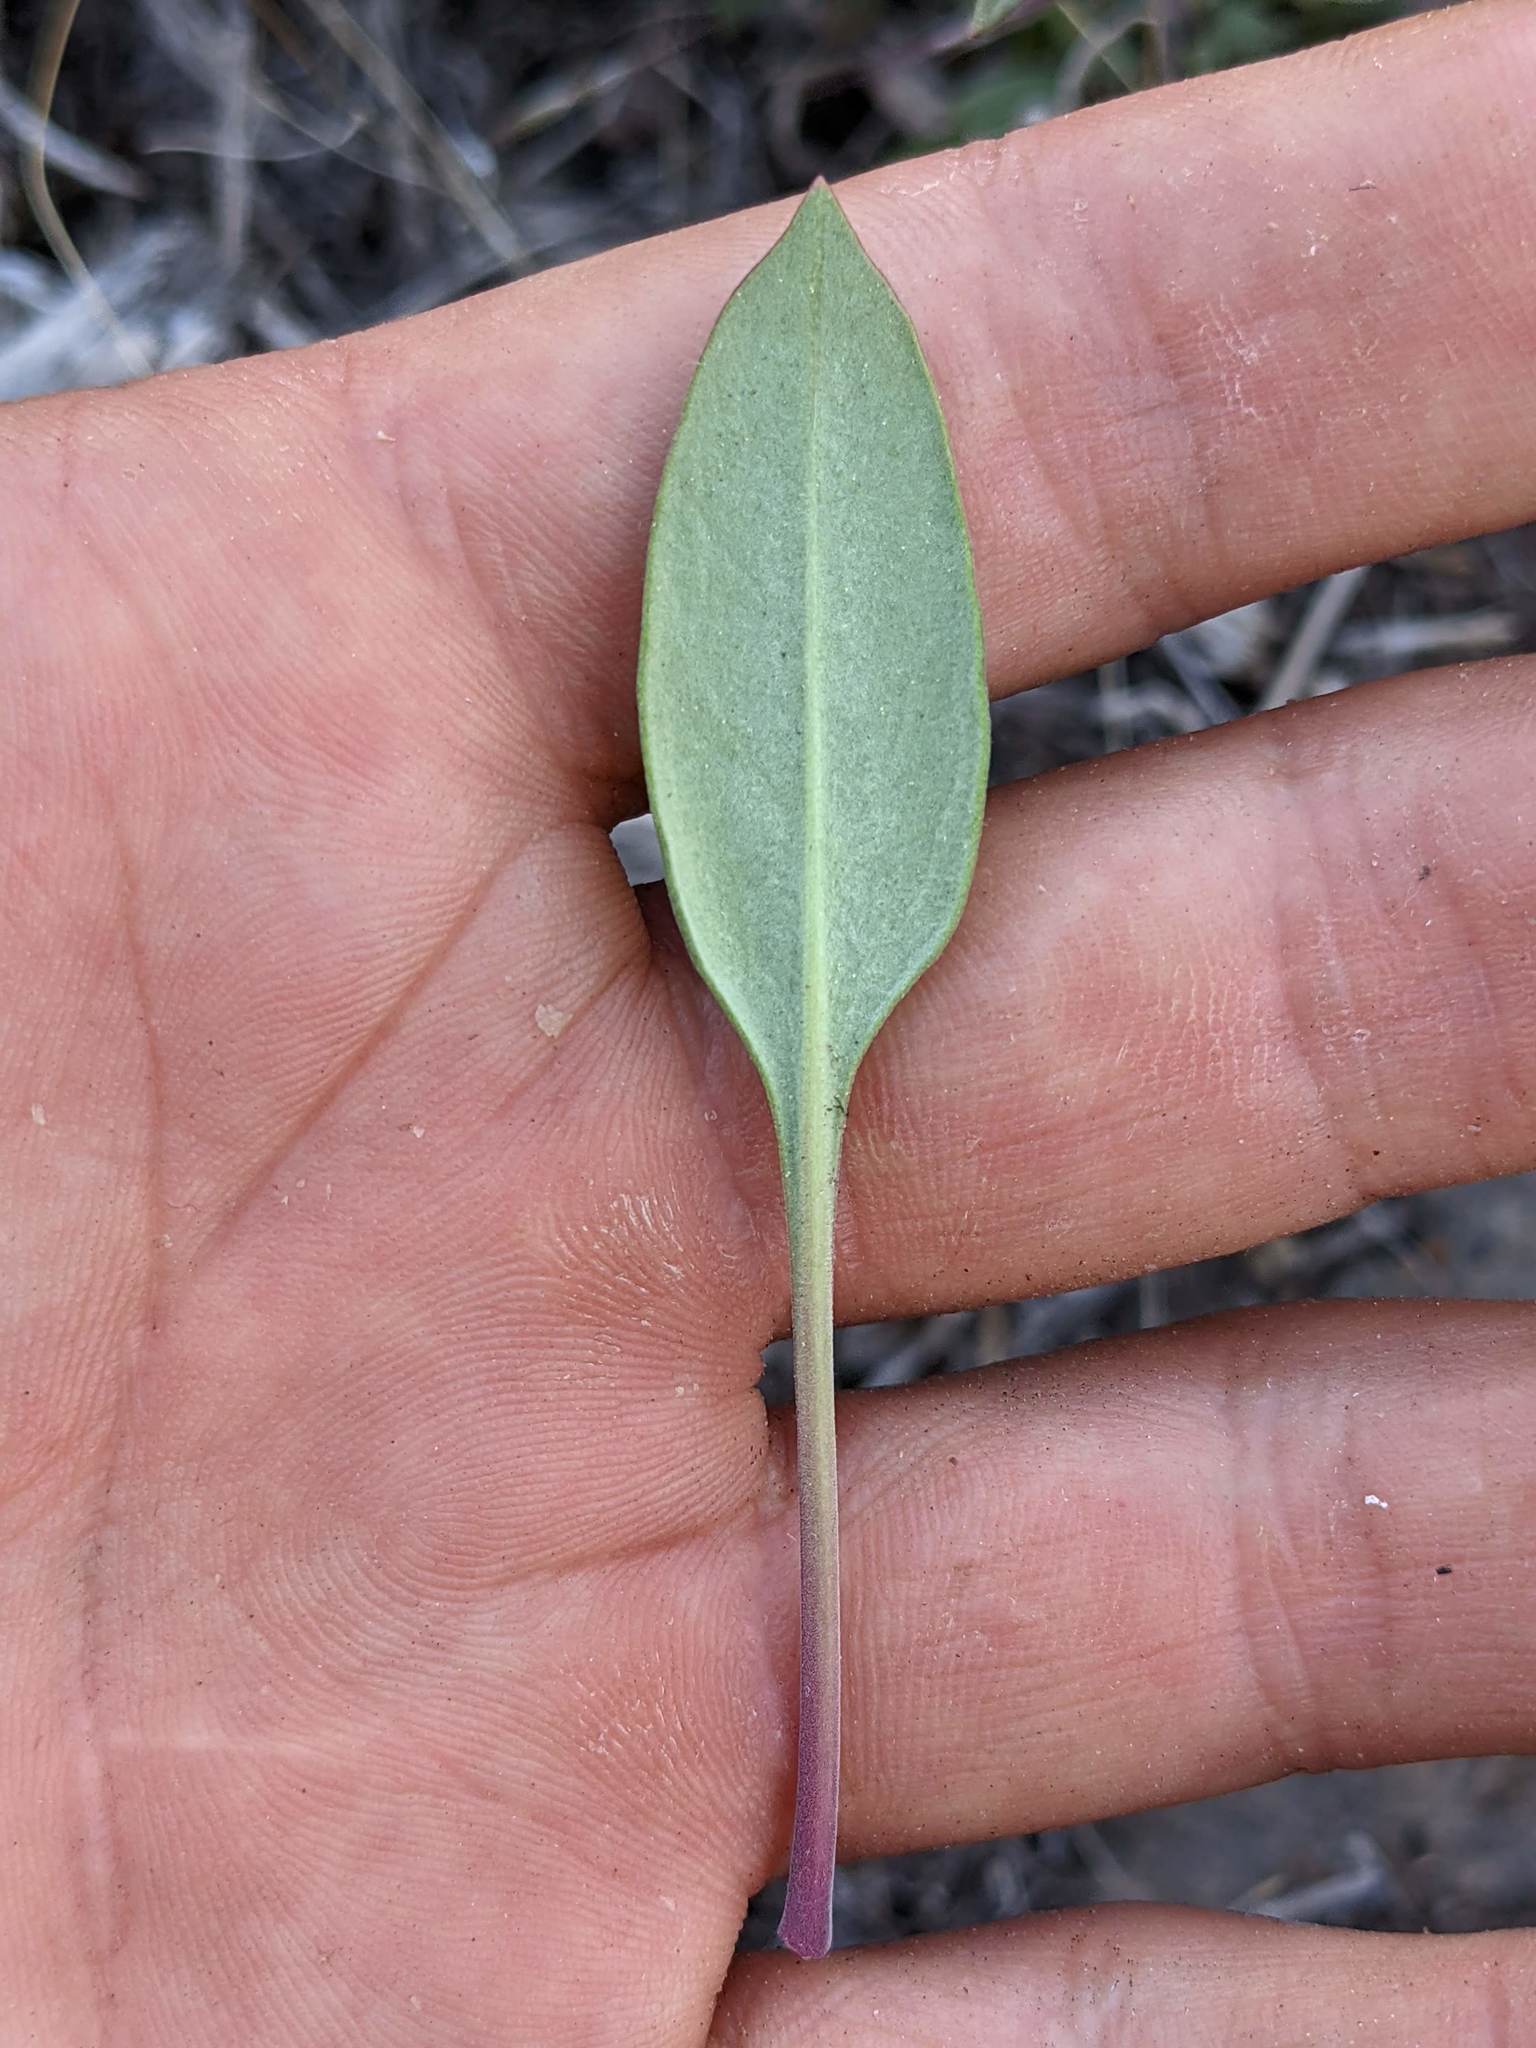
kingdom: Plantae
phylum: Tracheophyta
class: Magnoliopsida
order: Lamiales
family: Plantaginaceae
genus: Penstemon
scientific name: Penstemon humilis
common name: Low penstemon
